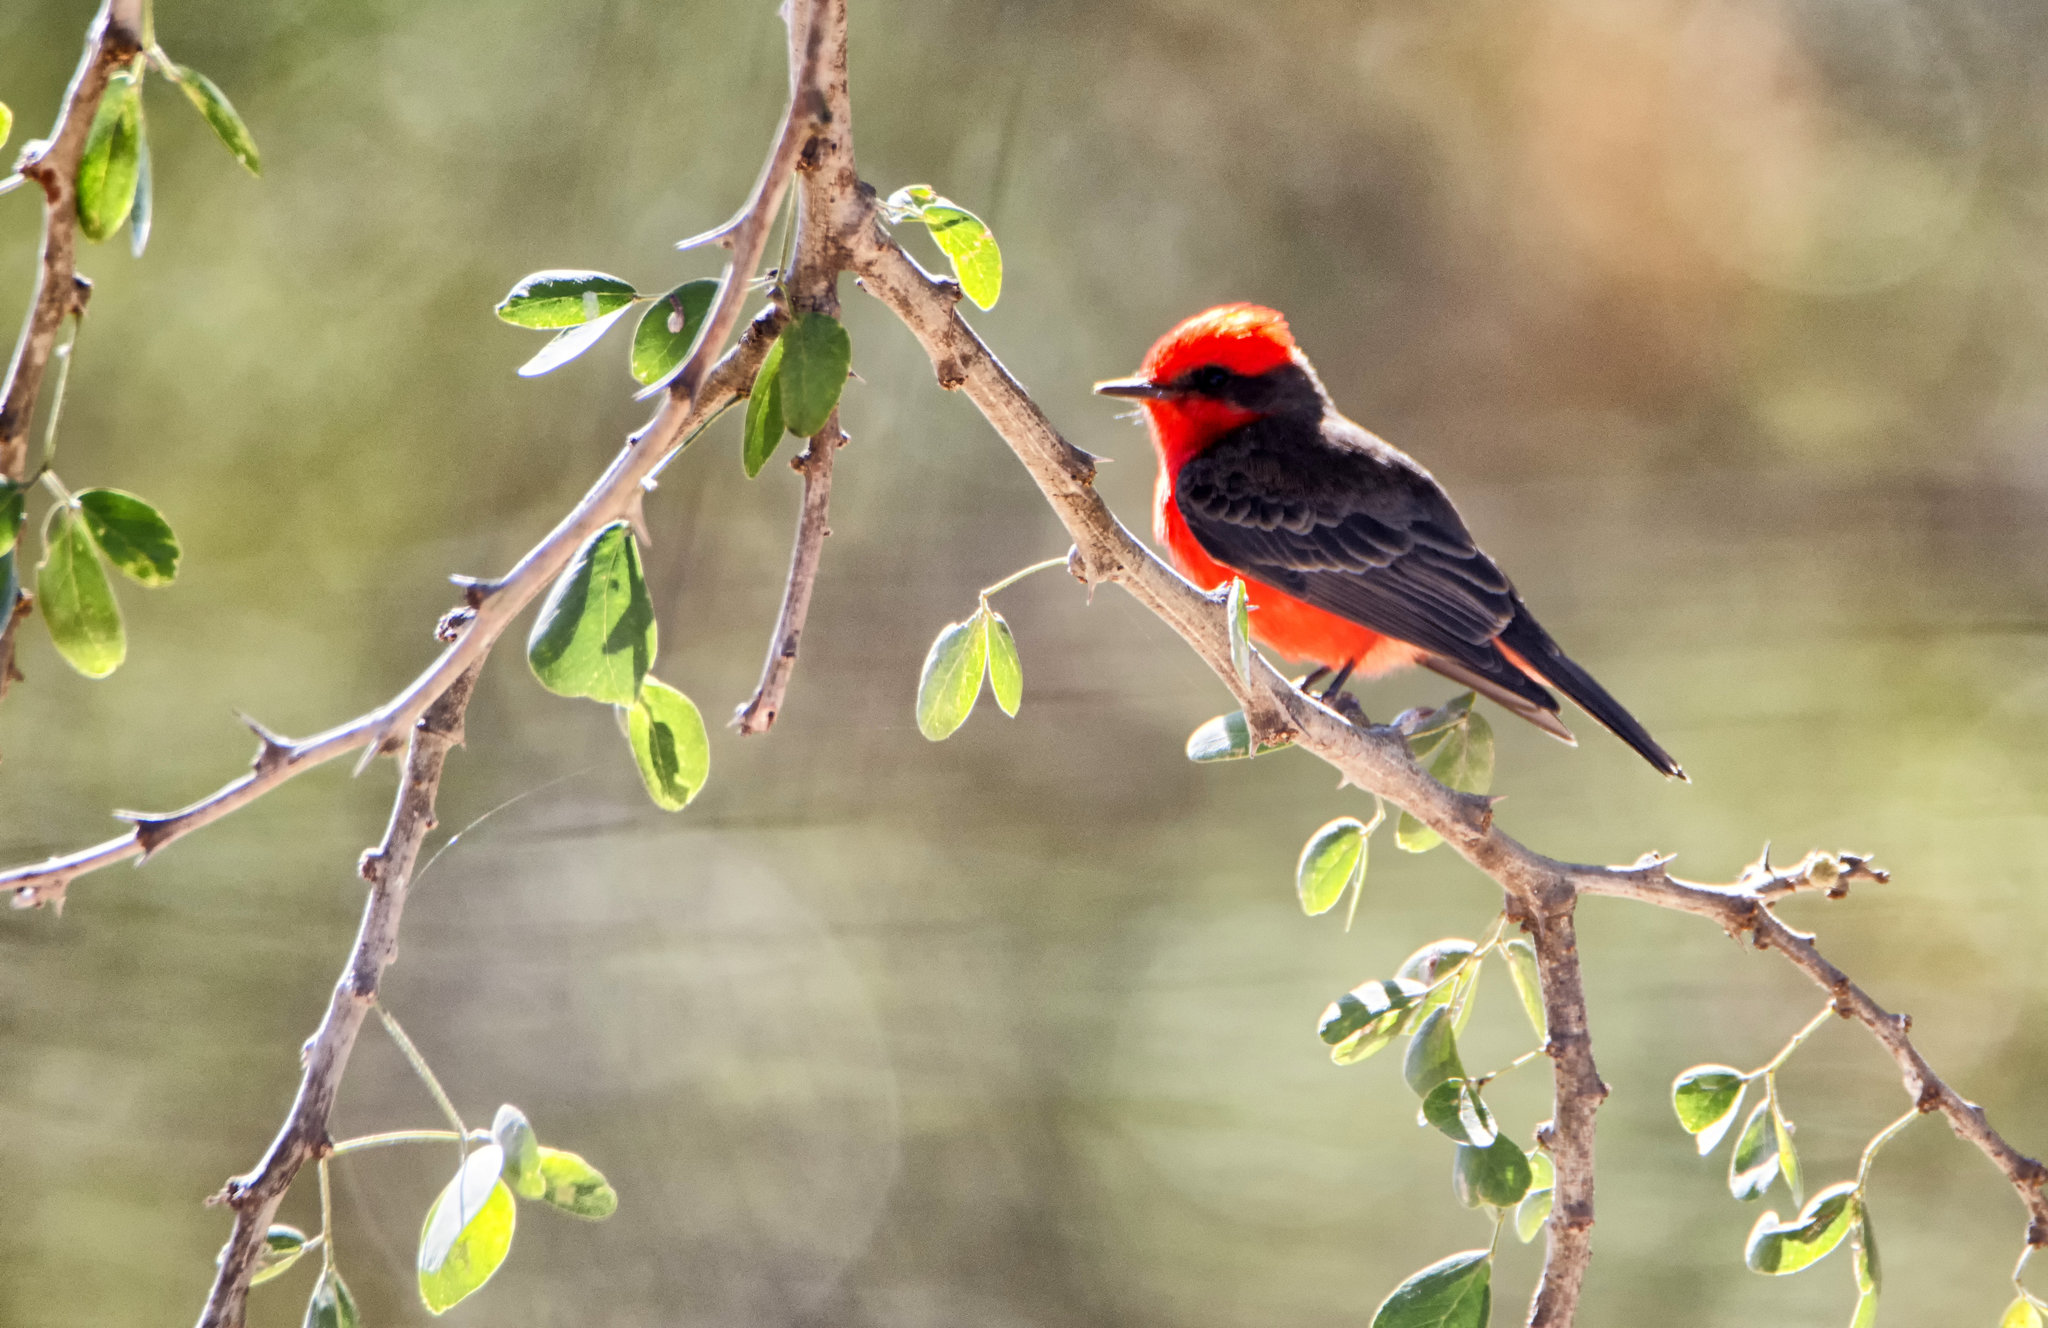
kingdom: Animalia
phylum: Chordata
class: Aves
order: Passeriformes
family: Tyrannidae
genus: Pyrocephalus
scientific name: Pyrocephalus rubinus
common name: Vermilion flycatcher
